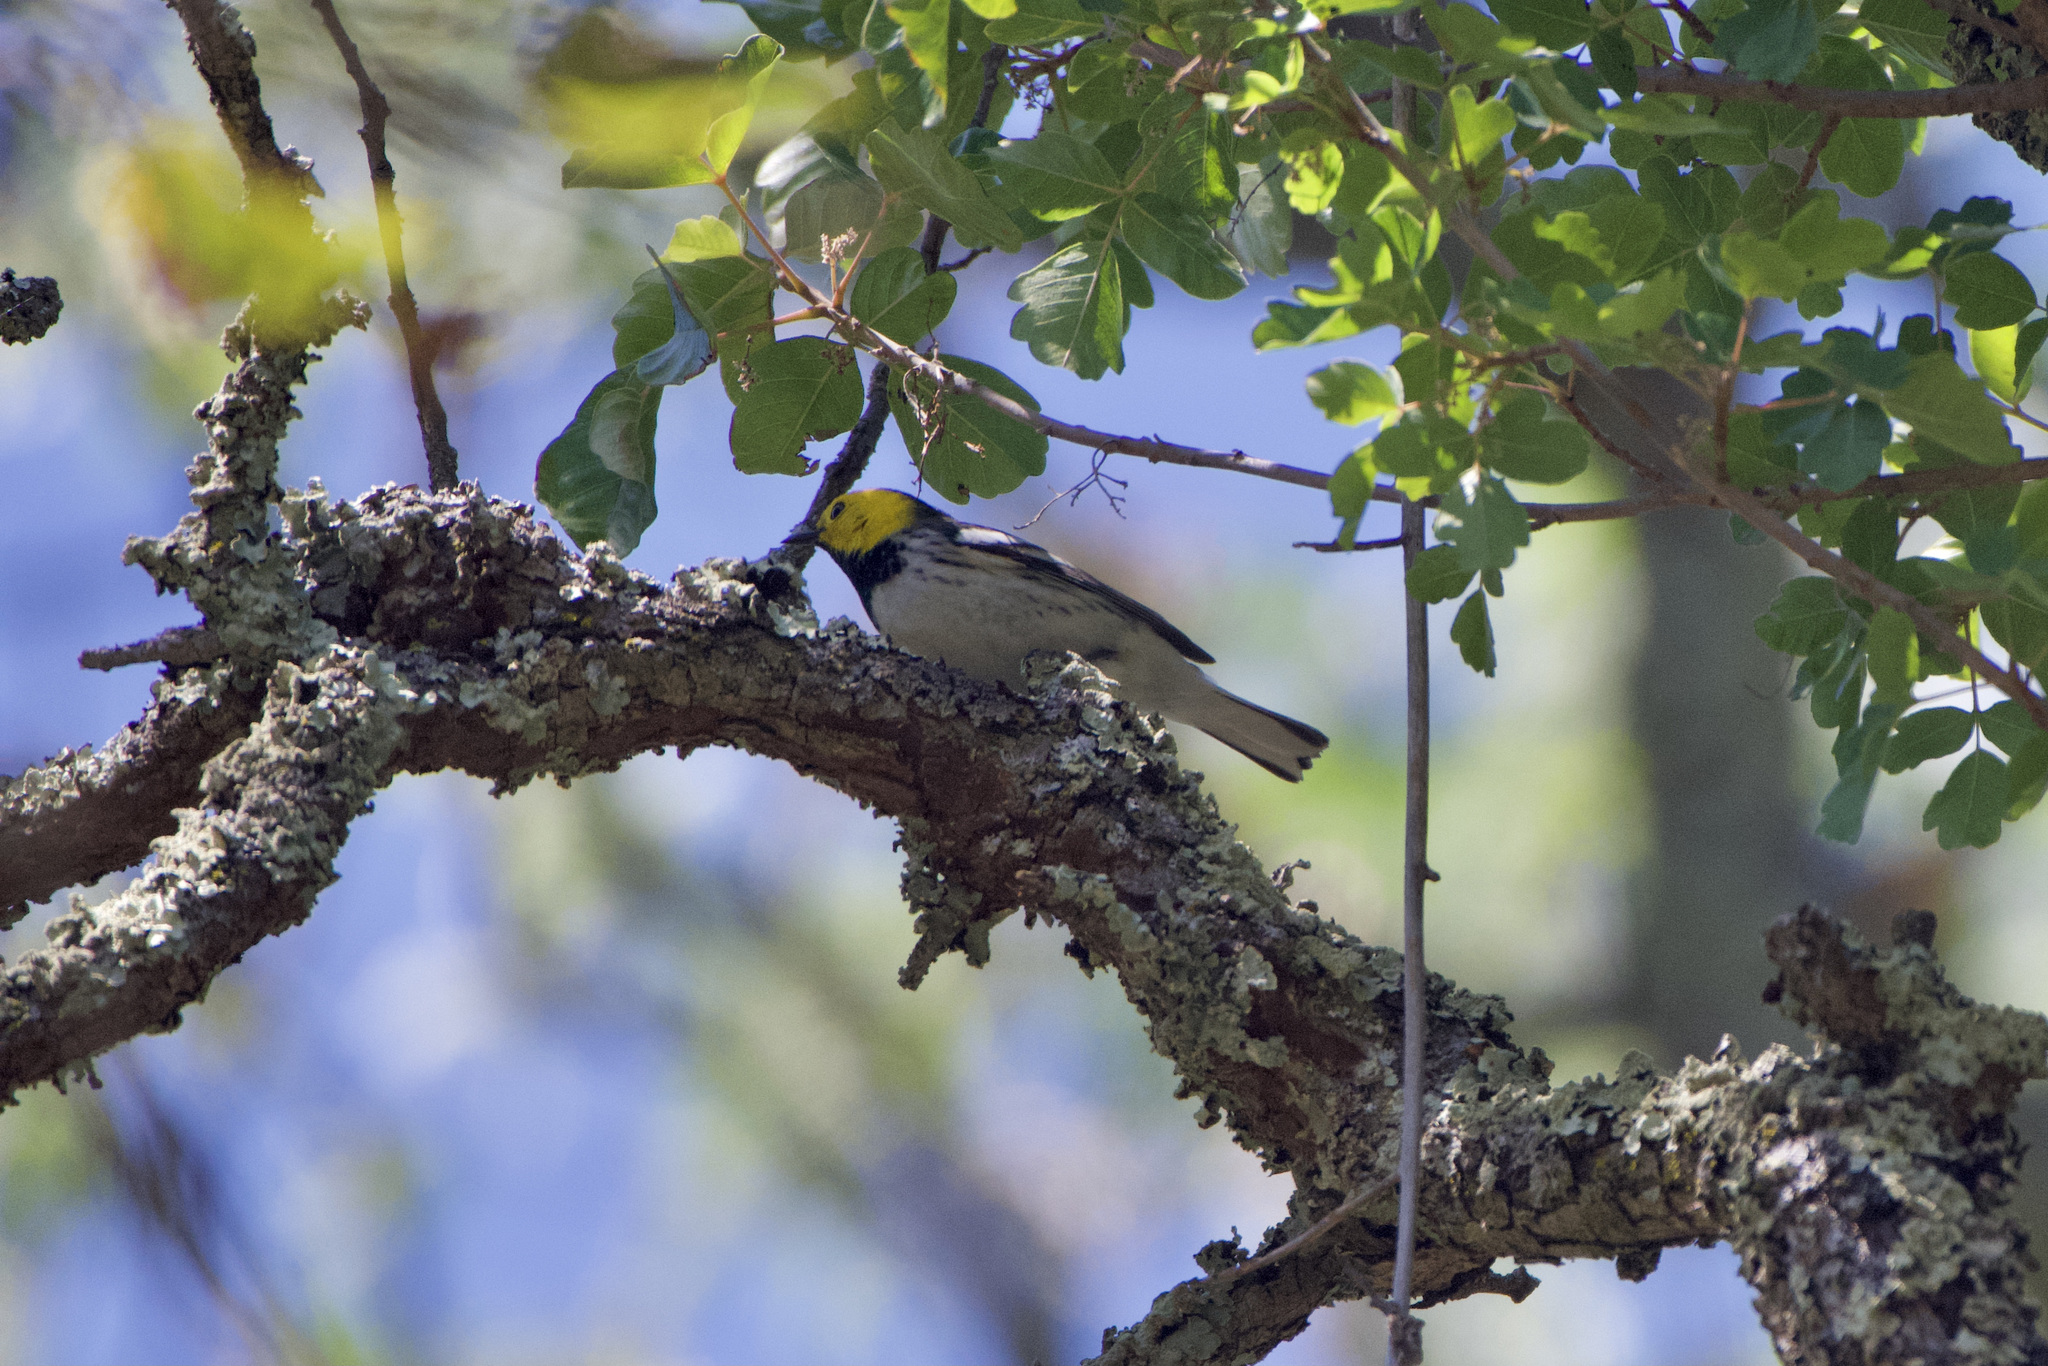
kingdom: Animalia
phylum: Chordata
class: Aves
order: Passeriformes
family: Parulidae
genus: Setophaga
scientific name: Setophaga occidentalis
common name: Hermit warbler
